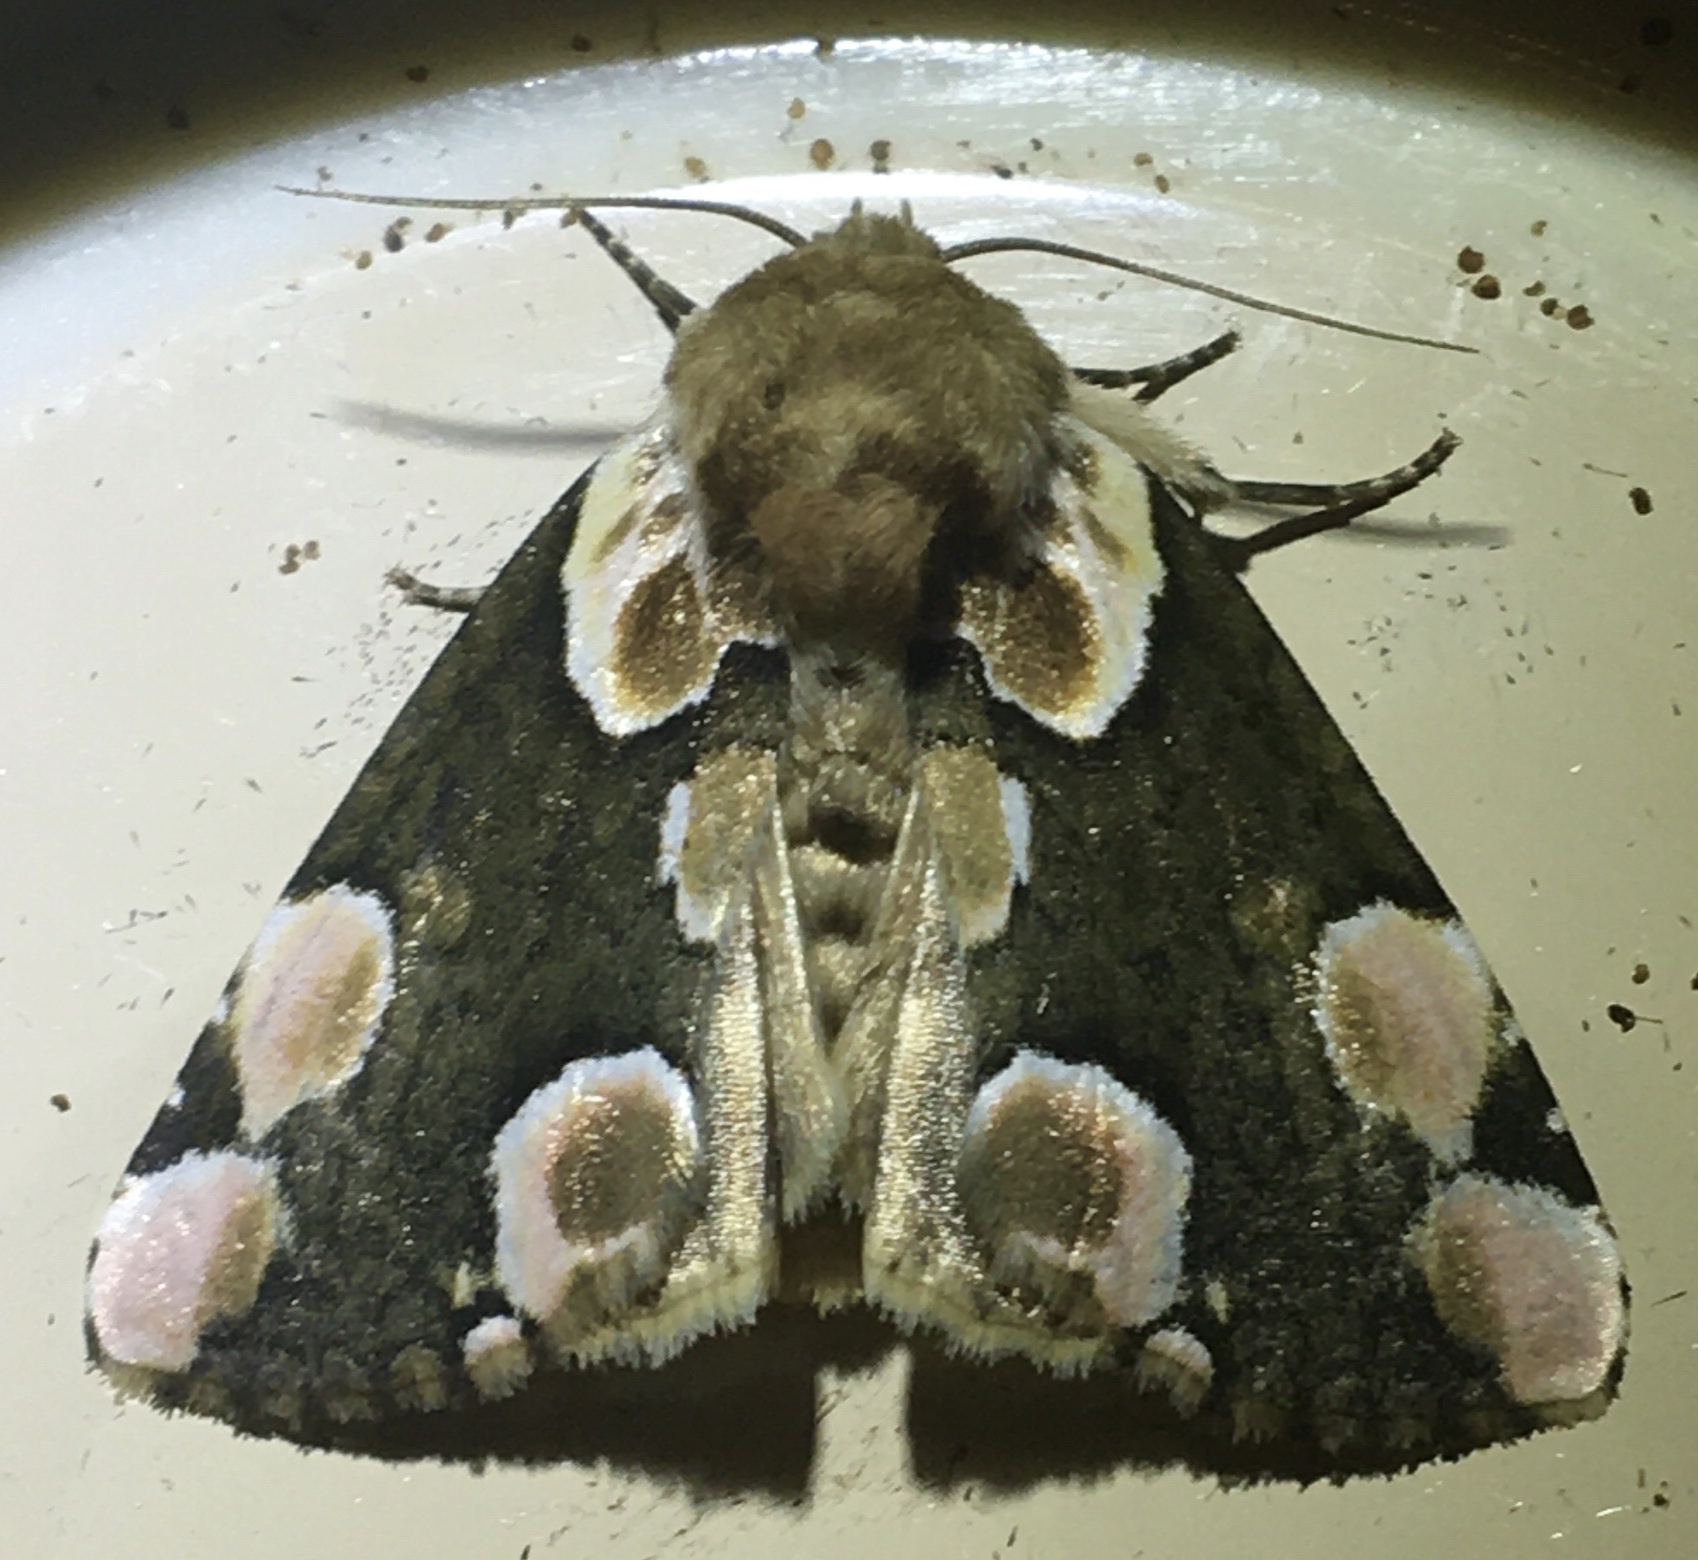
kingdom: Animalia
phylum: Arthropoda
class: Insecta
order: Lepidoptera
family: Drepanidae
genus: Thyatira
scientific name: Thyatira batis
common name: Peach blossom
